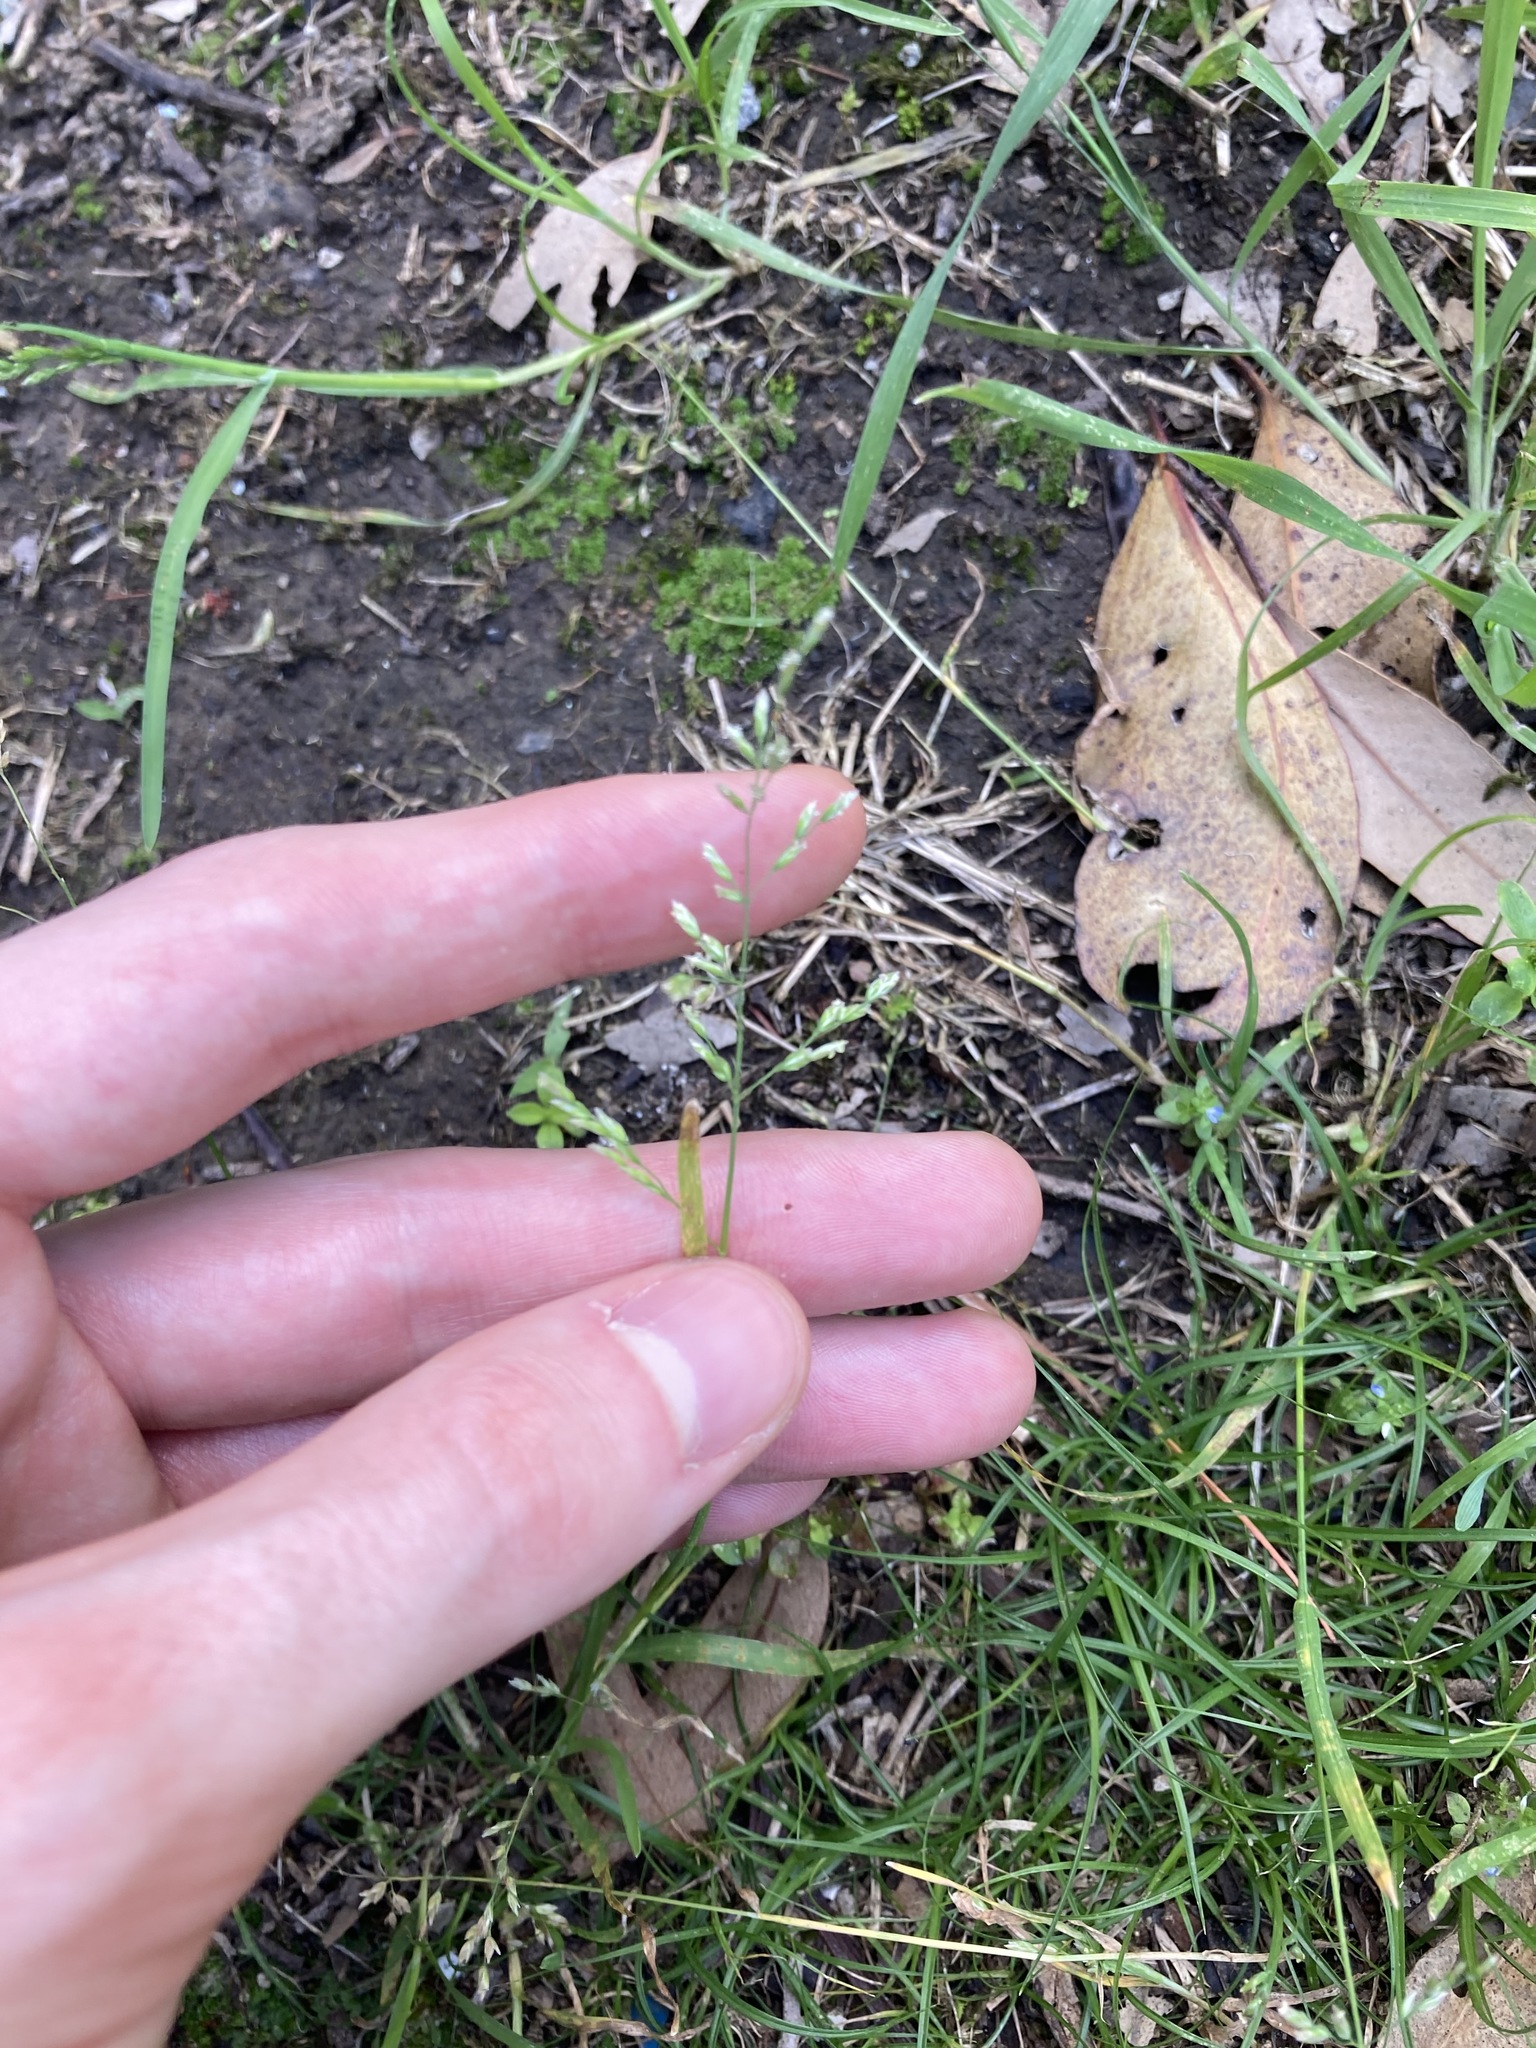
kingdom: Plantae
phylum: Tracheophyta
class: Liliopsida
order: Poales
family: Poaceae
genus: Poa
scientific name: Poa annua
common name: Annual bluegrass
